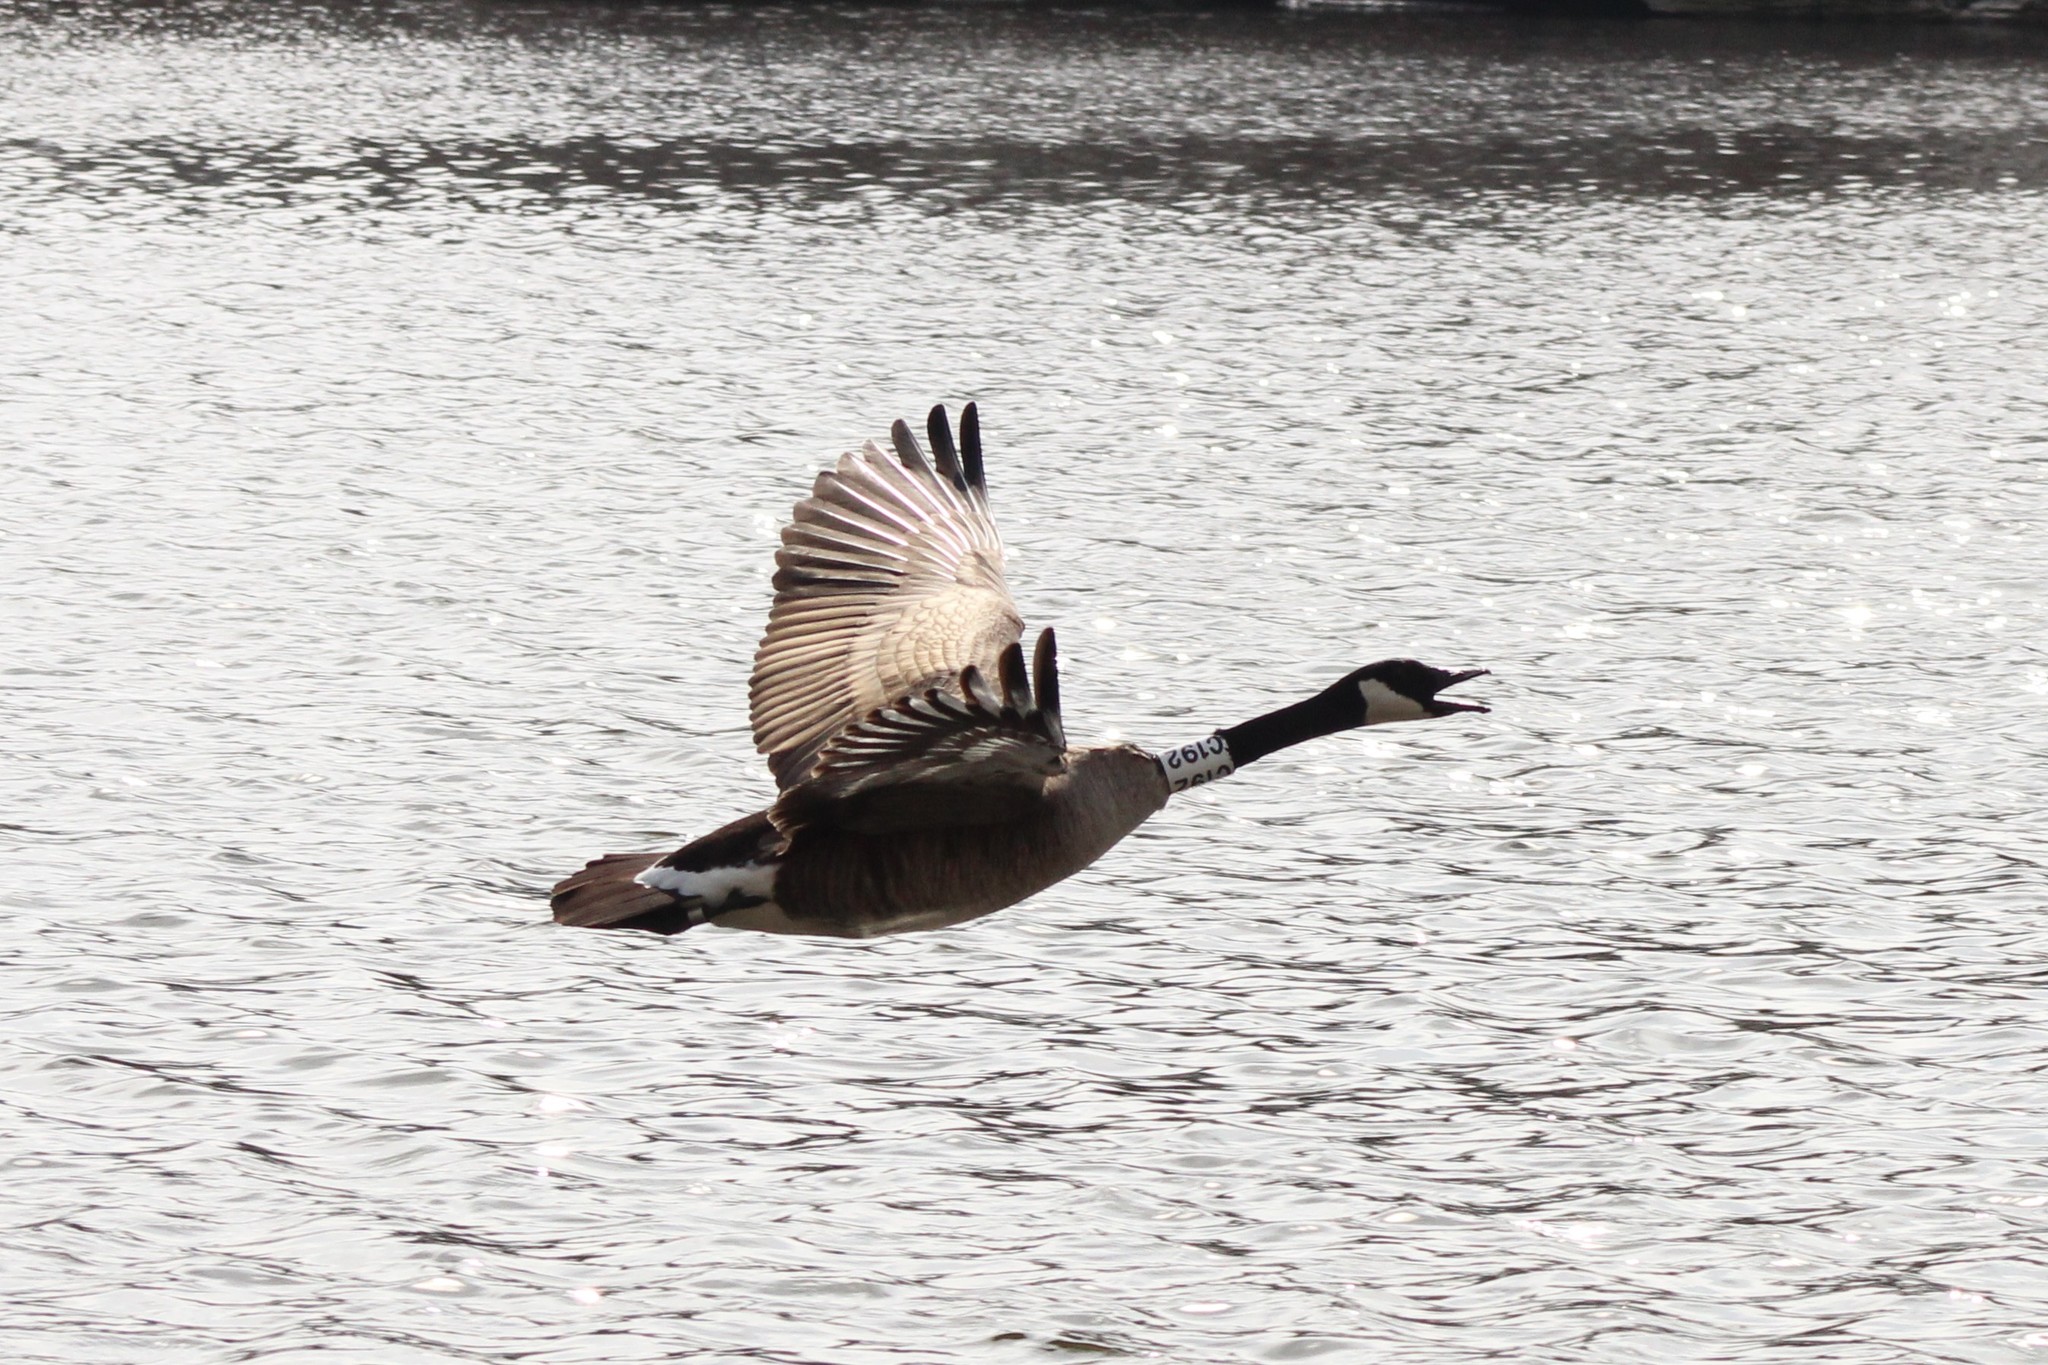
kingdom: Animalia
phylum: Chordata
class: Aves
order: Anseriformes
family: Anatidae
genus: Branta
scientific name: Branta canadensis
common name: Canada goose
